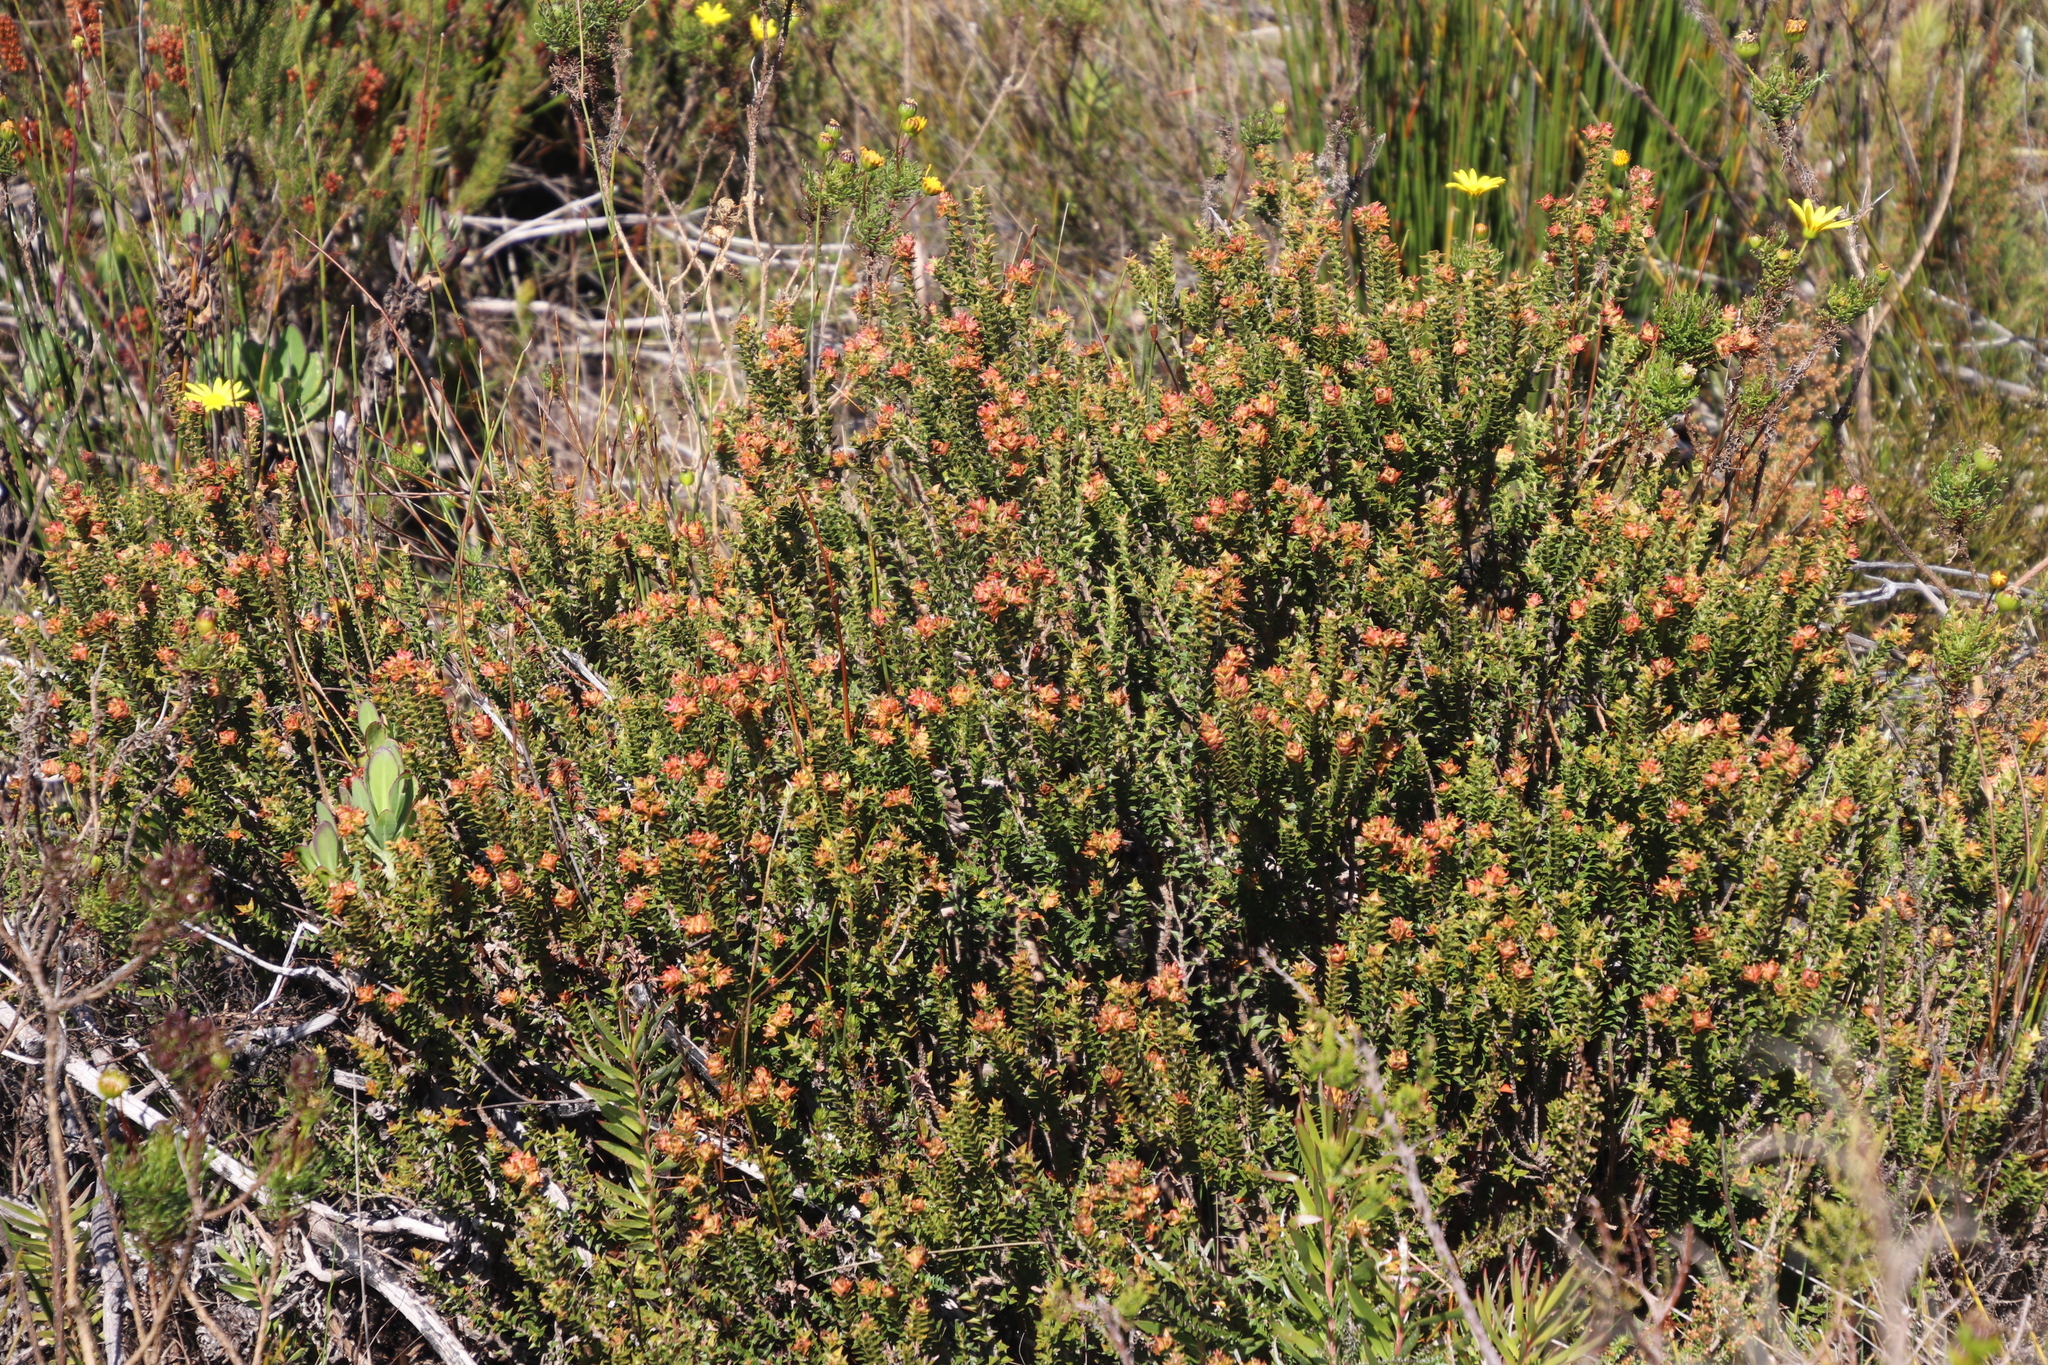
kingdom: Plantae
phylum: Tracheophyta
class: Magnoliopsida
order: Myrtales
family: Penaeaceae
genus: Penaea
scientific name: Penaea mucronata
